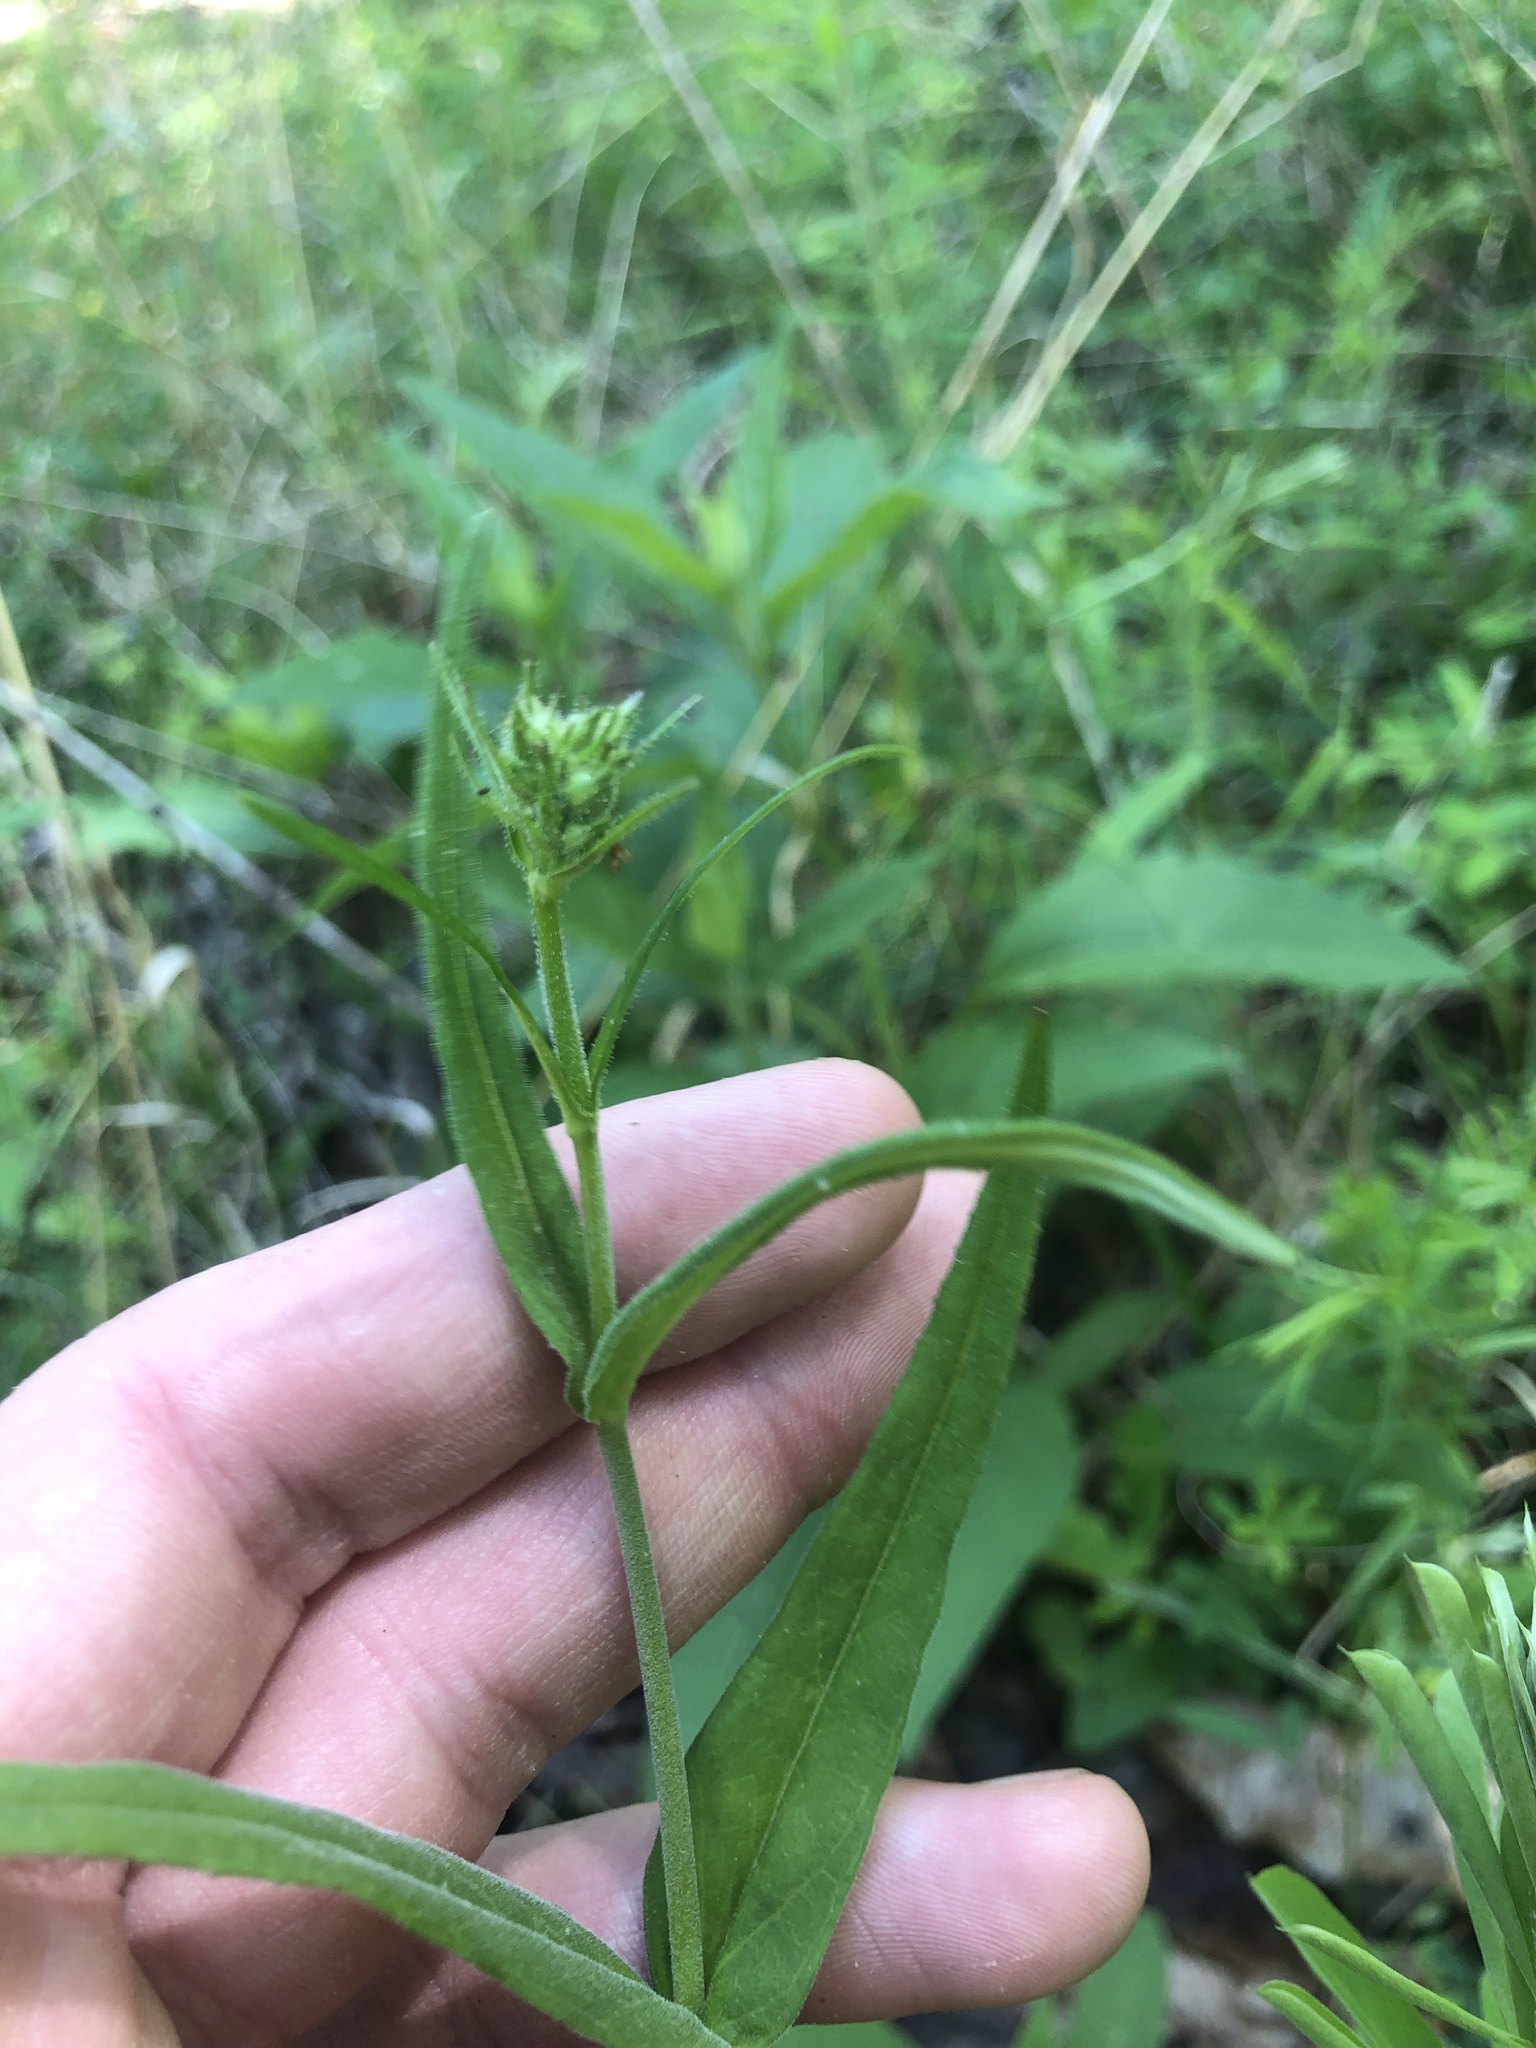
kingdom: Plantae
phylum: Tracheophyta
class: Magnoliopsida
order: Lamiales
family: Plantaginaceae
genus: Penstemon
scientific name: Penstemon laevigatus
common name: Eastern beardtongue
